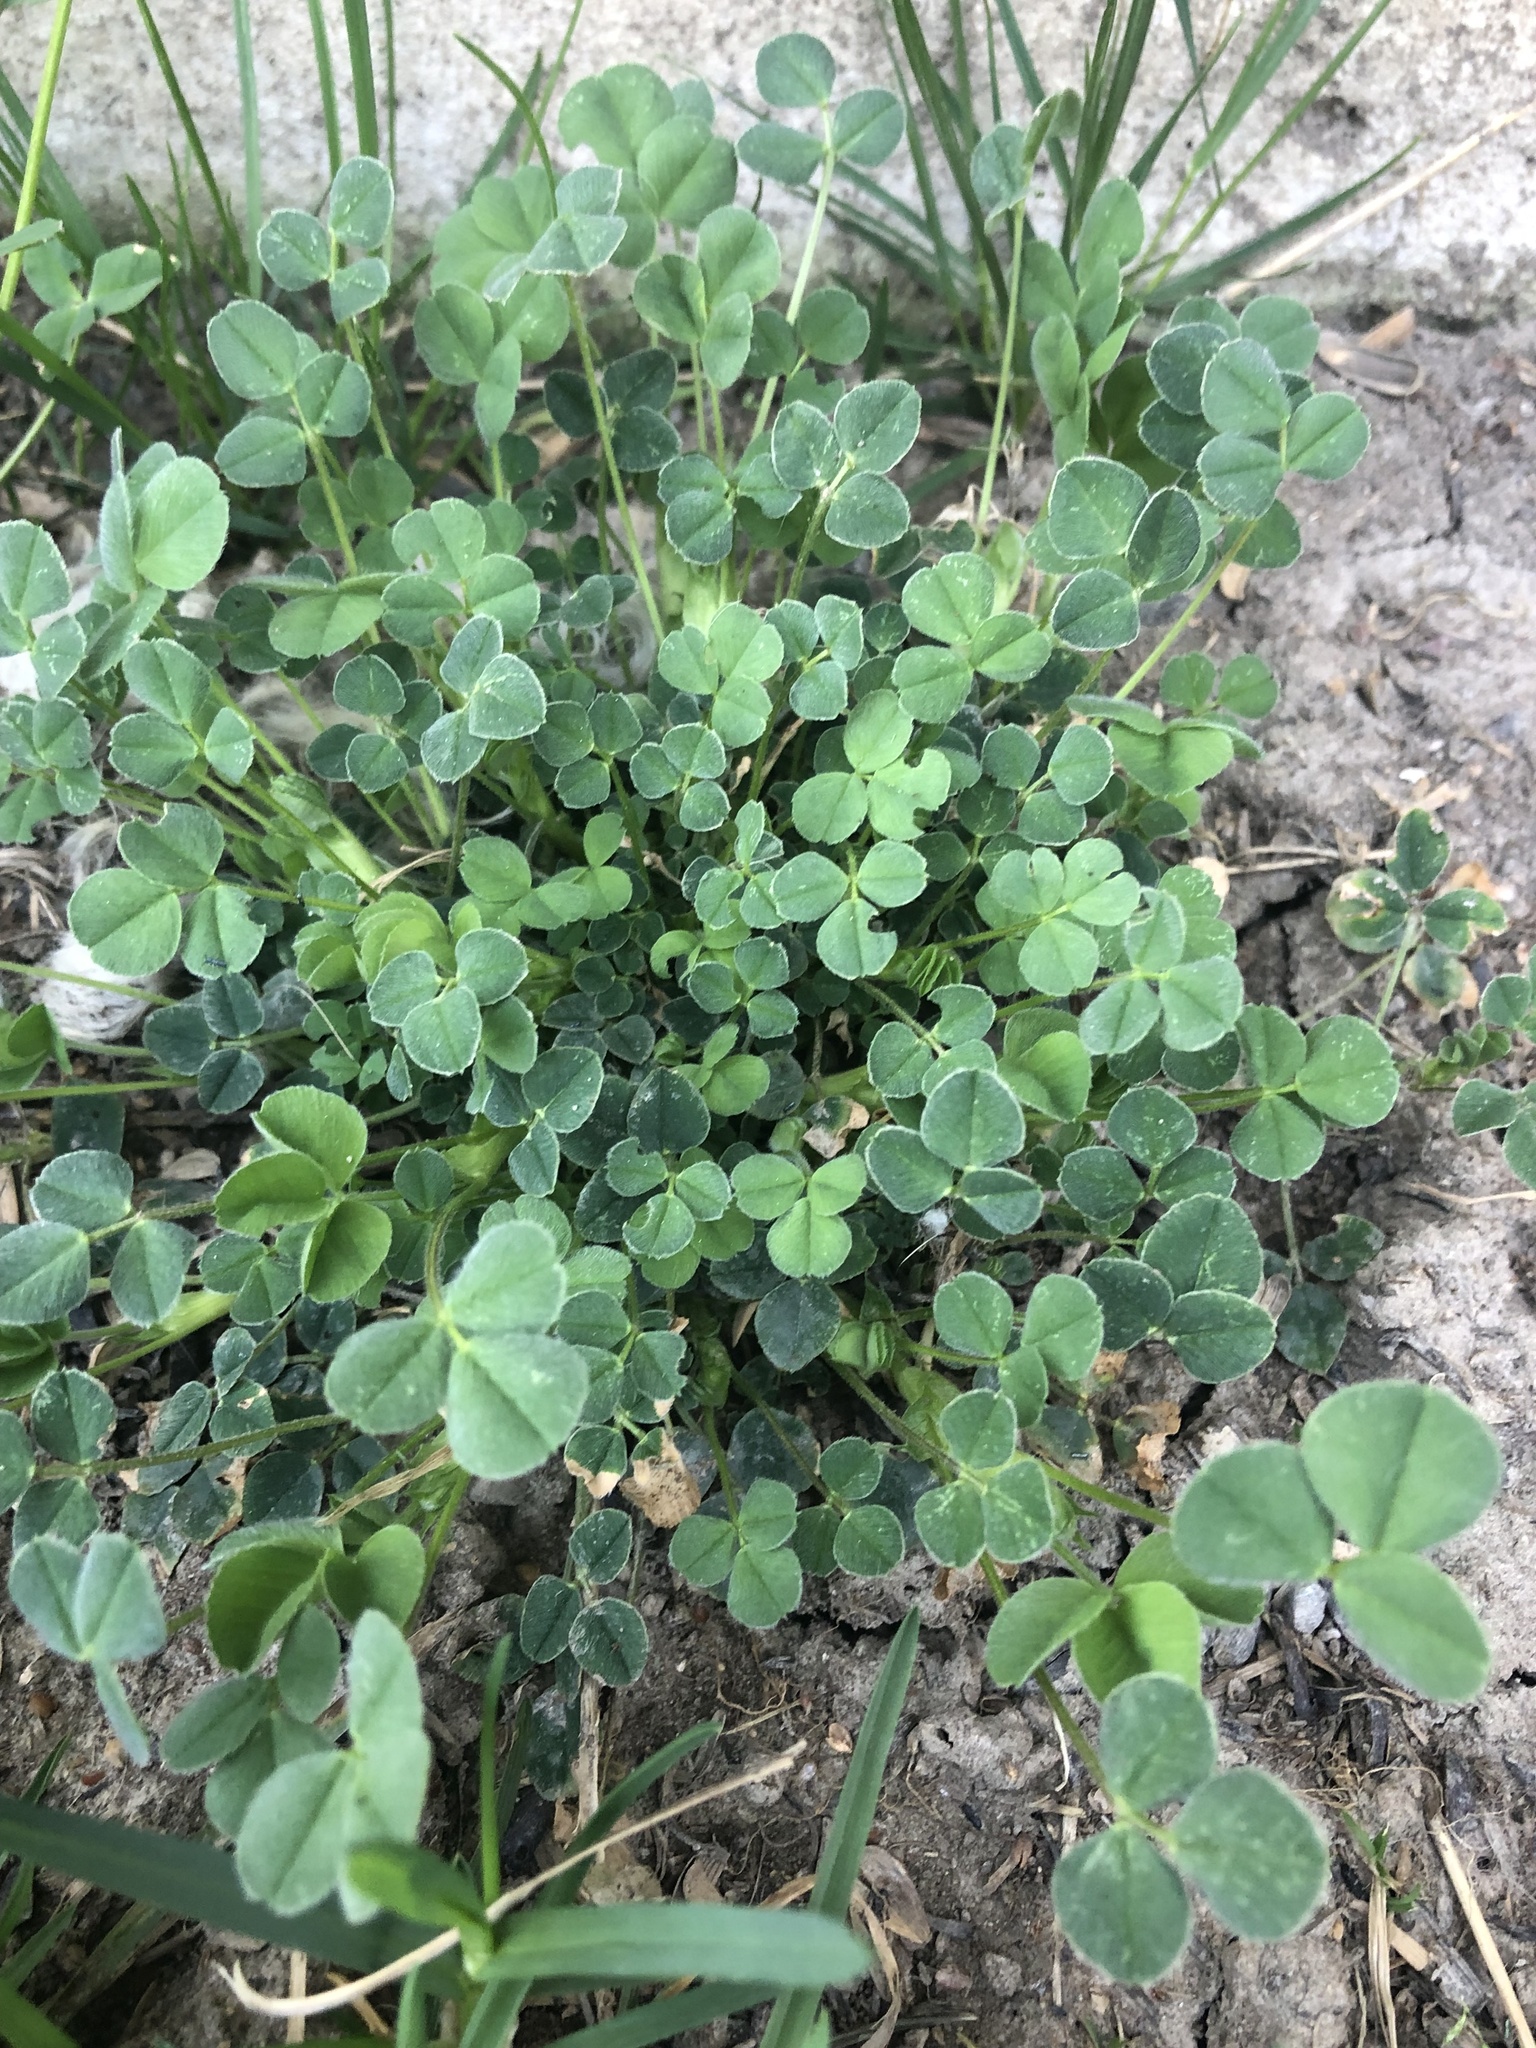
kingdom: Plantae
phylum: Tracheophyta
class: Magnoliopsida
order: Fabales
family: Fabaceae
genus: Medicago
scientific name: Medicago lupulina
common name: Black medick
